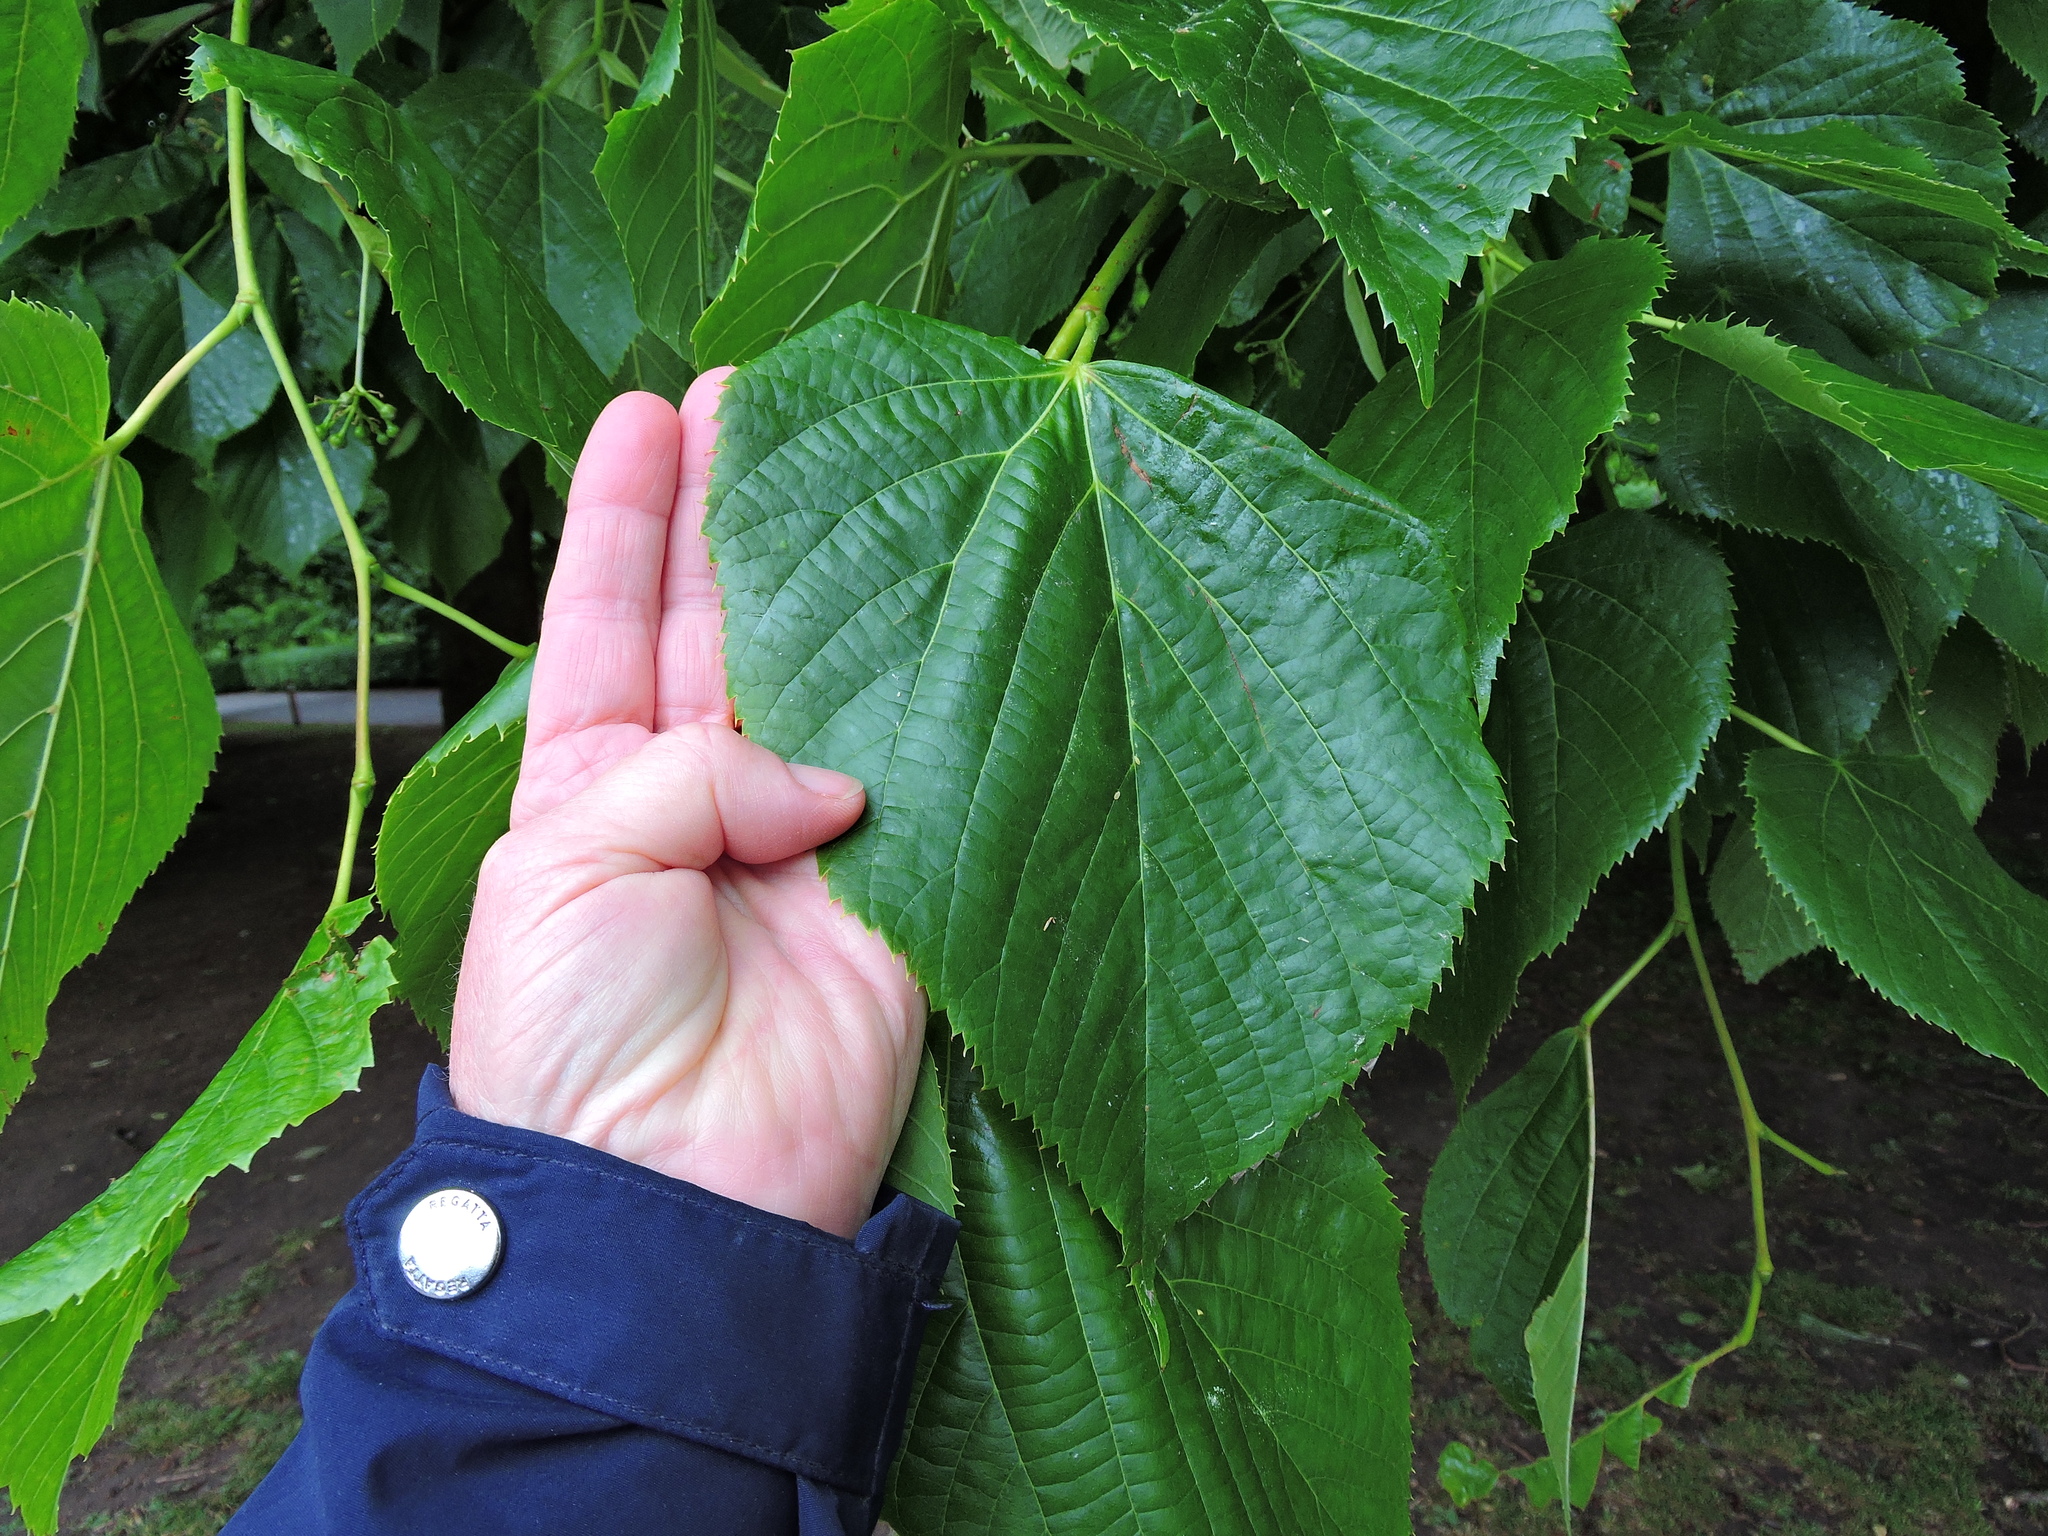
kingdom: Plantae
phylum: Tracheophyta
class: Magnoliopsida
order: Malvales
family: Malvaceae
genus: Tilia
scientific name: Tilia platyphyllos
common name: Large-leaved lime
